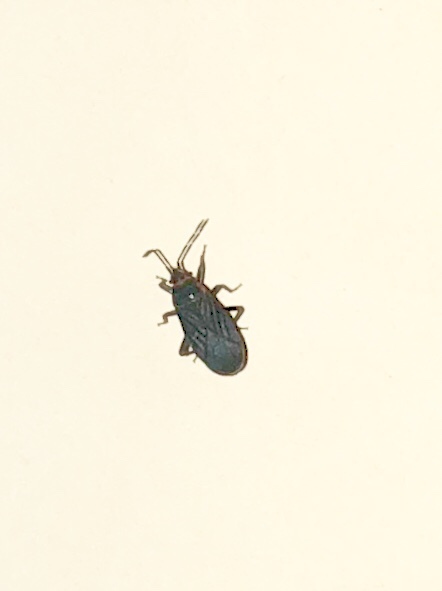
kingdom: Animalia
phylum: Arthropoda
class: Insecta
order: Hemiptera
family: Lygaeidae
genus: Melacoryphus
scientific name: Melacoryphus rubicollis
